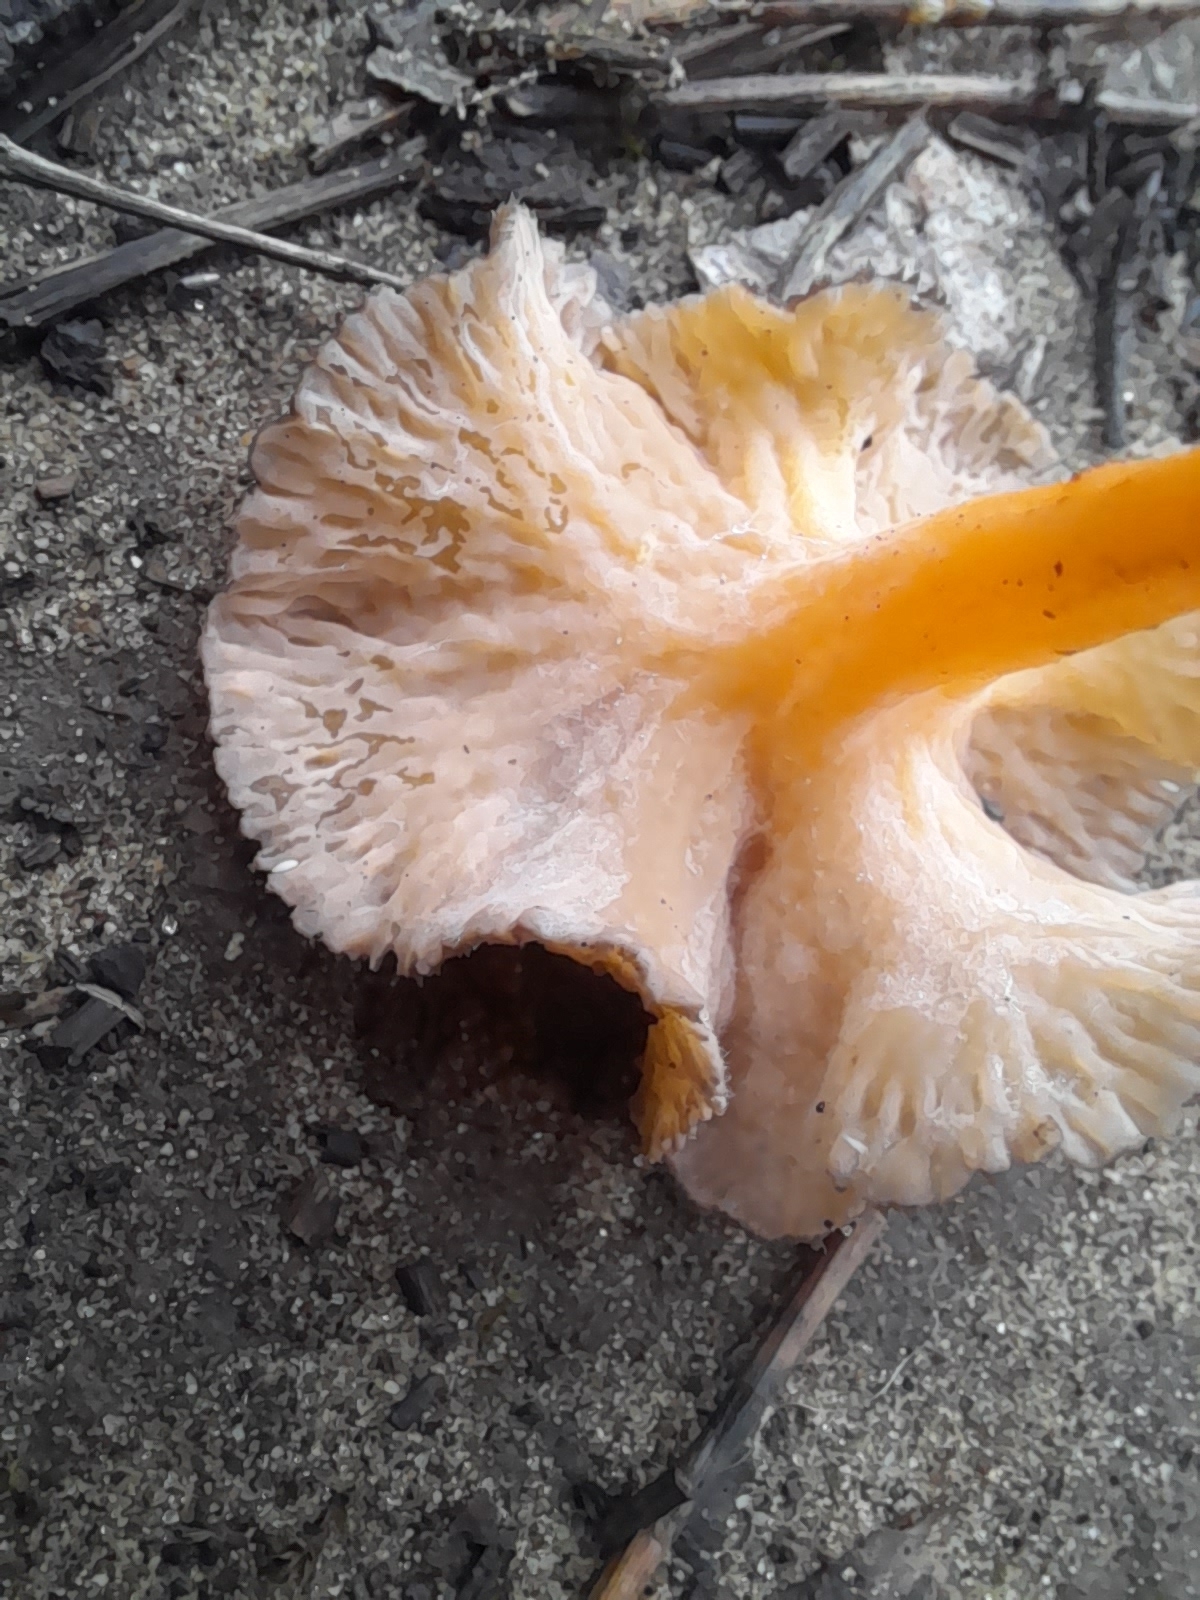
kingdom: Fungi
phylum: Basidiomycota
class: Agaricomycetes
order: Cantharellales
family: Hydnaceae
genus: Craterellus
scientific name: Craterellus lutescens
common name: Golden chanterelle
